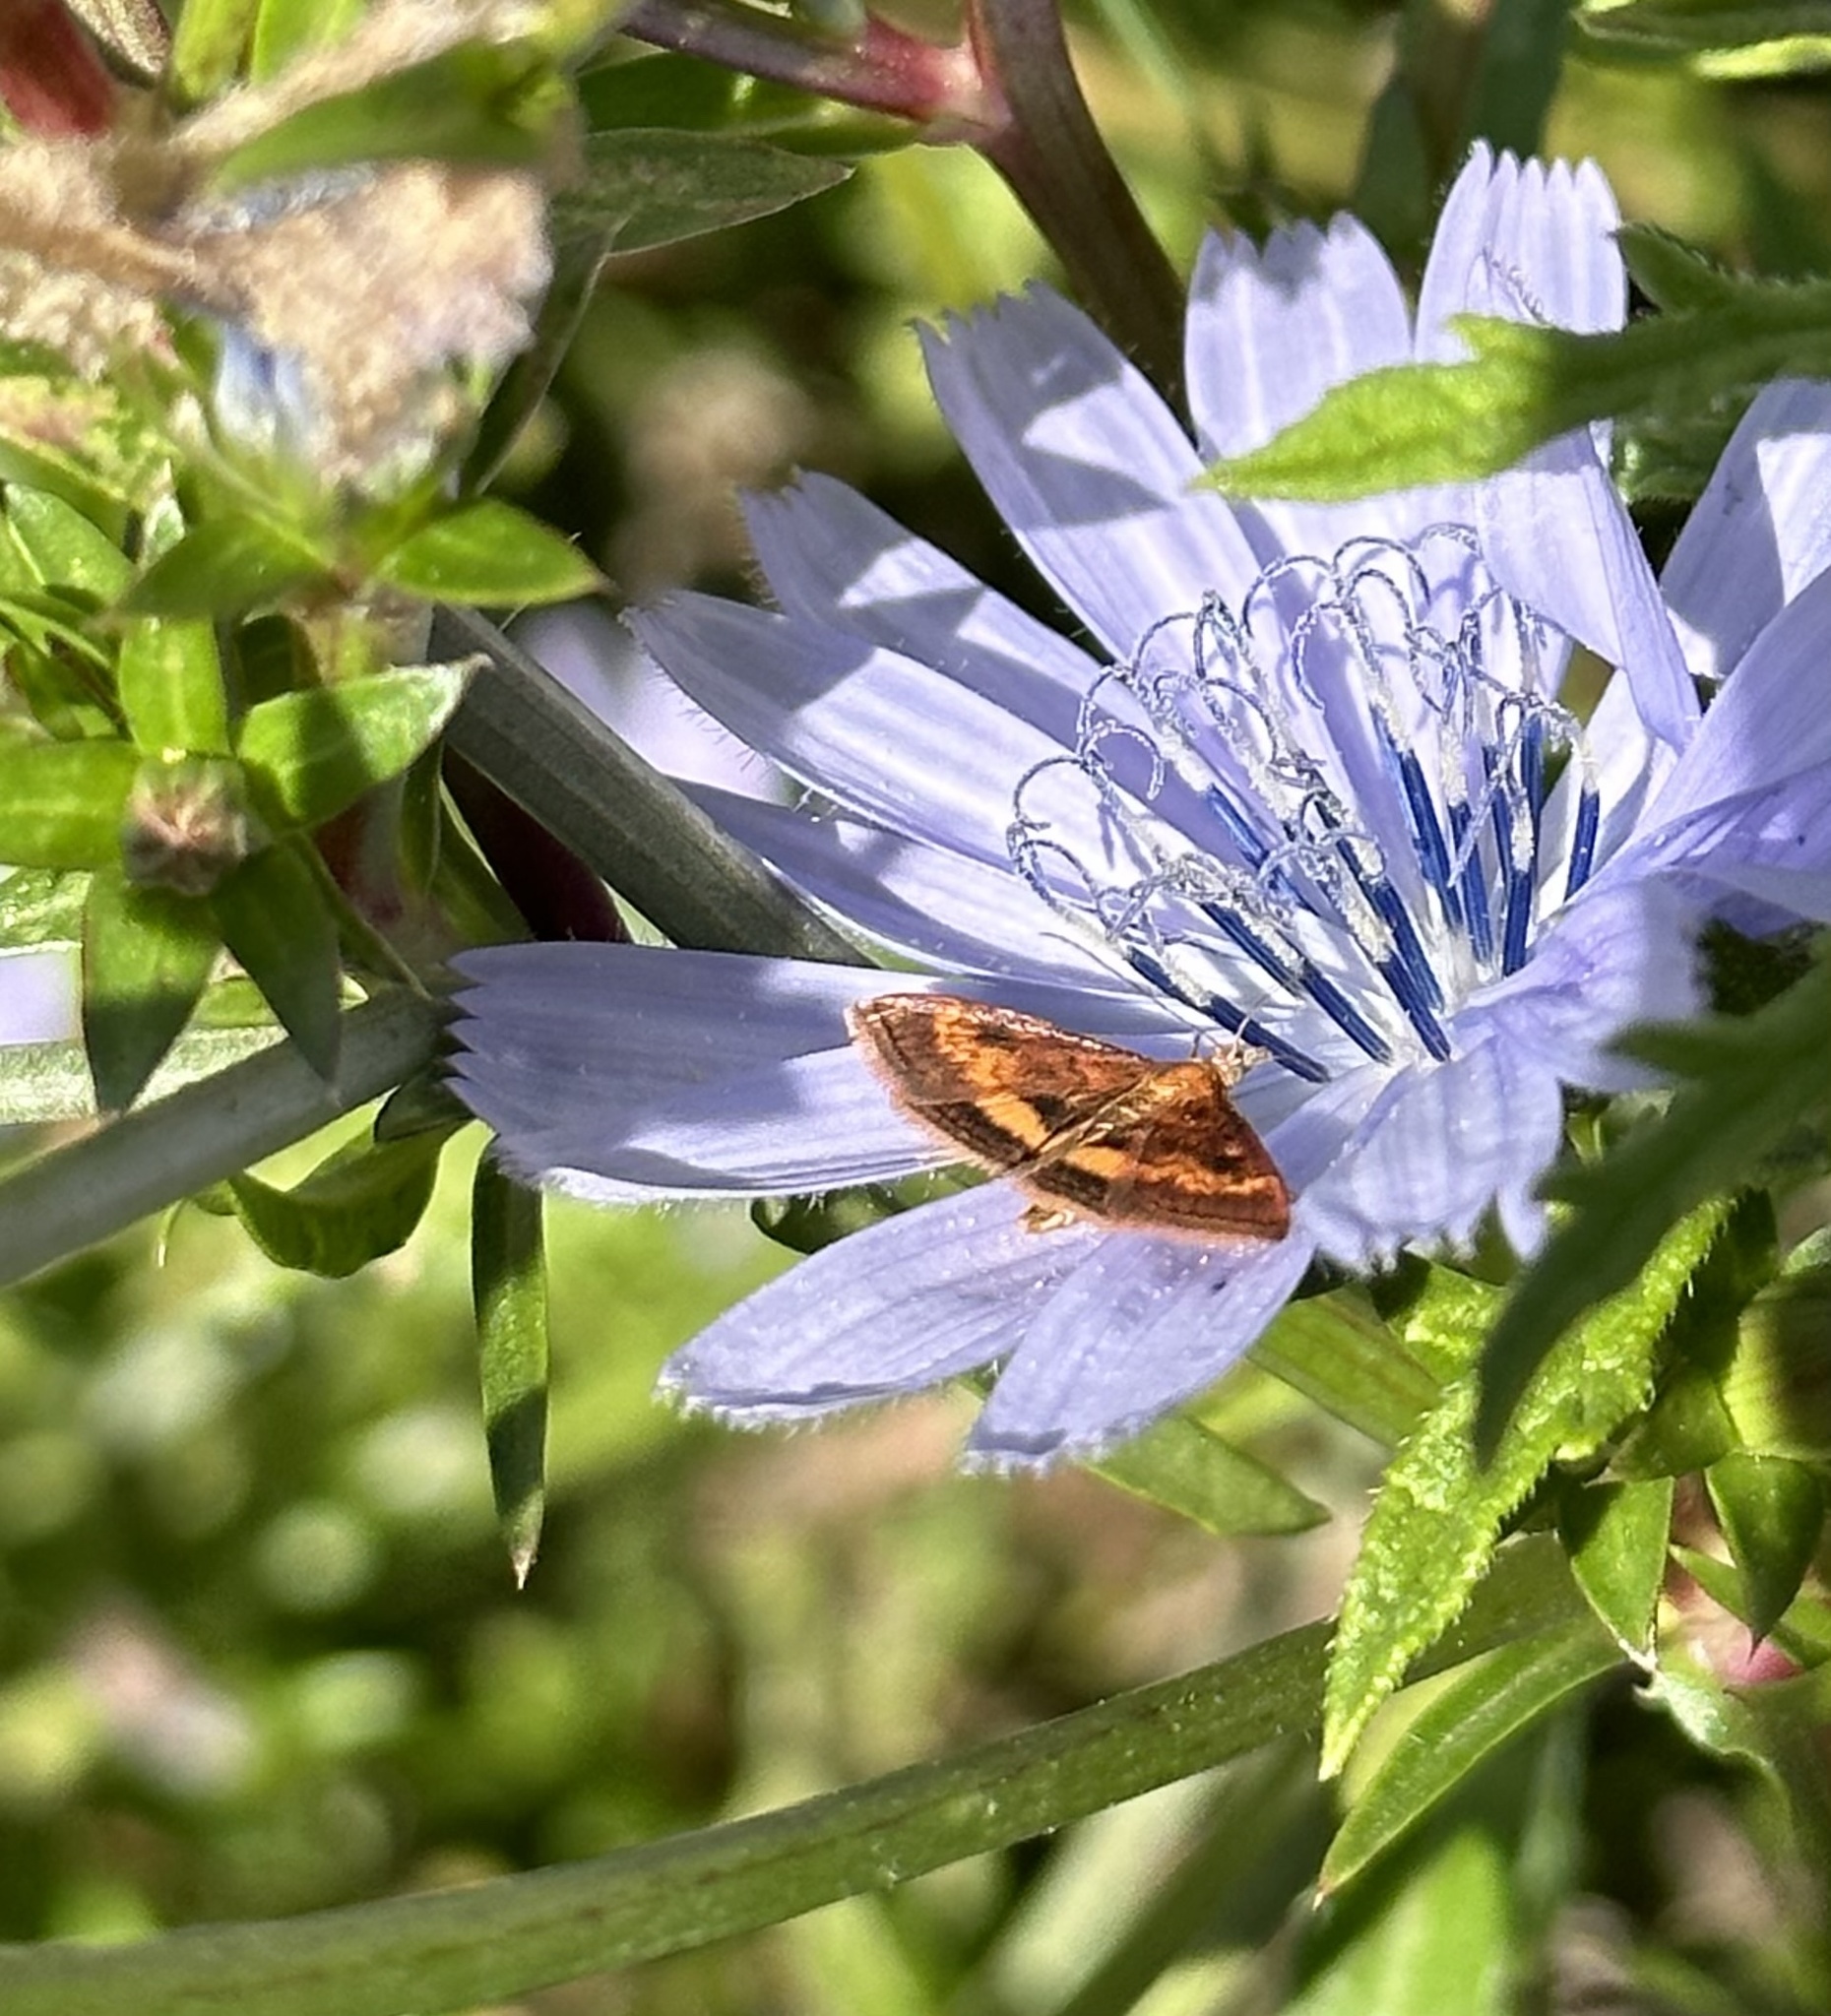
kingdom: Animalia
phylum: Arthropoda
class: Insecta
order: Lepidoptera
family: Crambidae
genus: Pyrausta
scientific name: Pyrausta californicalis
